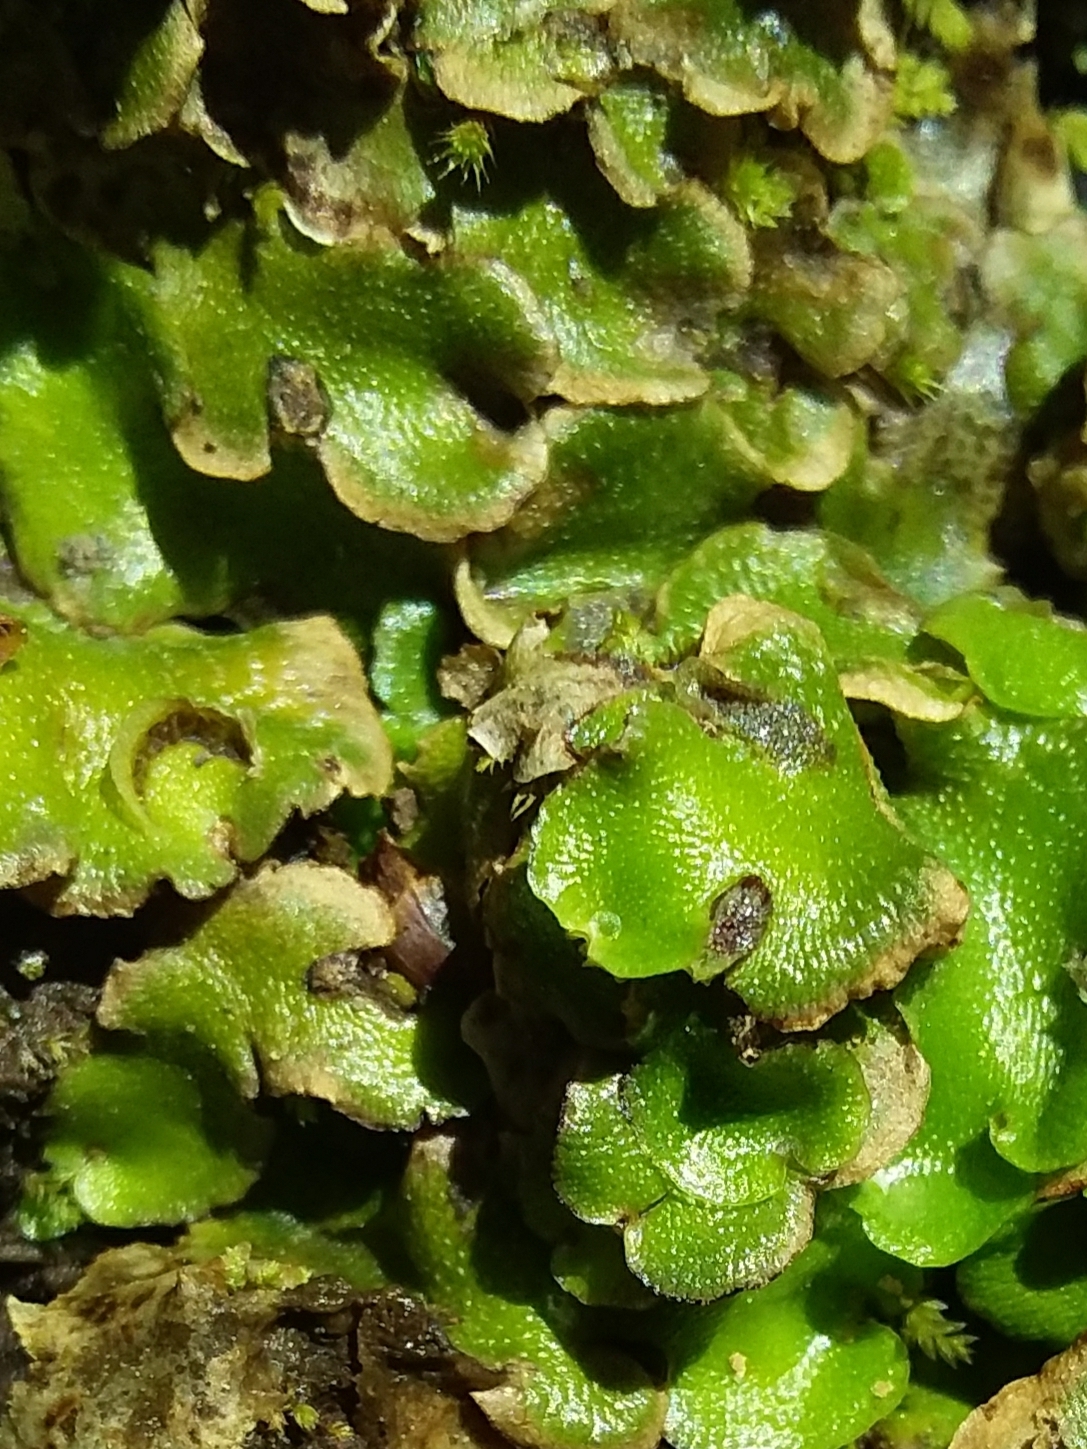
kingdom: Plantae
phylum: Marchantiophyta
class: Marchantiopsida
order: Lunulariales
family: Lunulariaceae
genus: Lunularia
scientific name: Lunularia cruciata
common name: Crescent-cup liverwort
